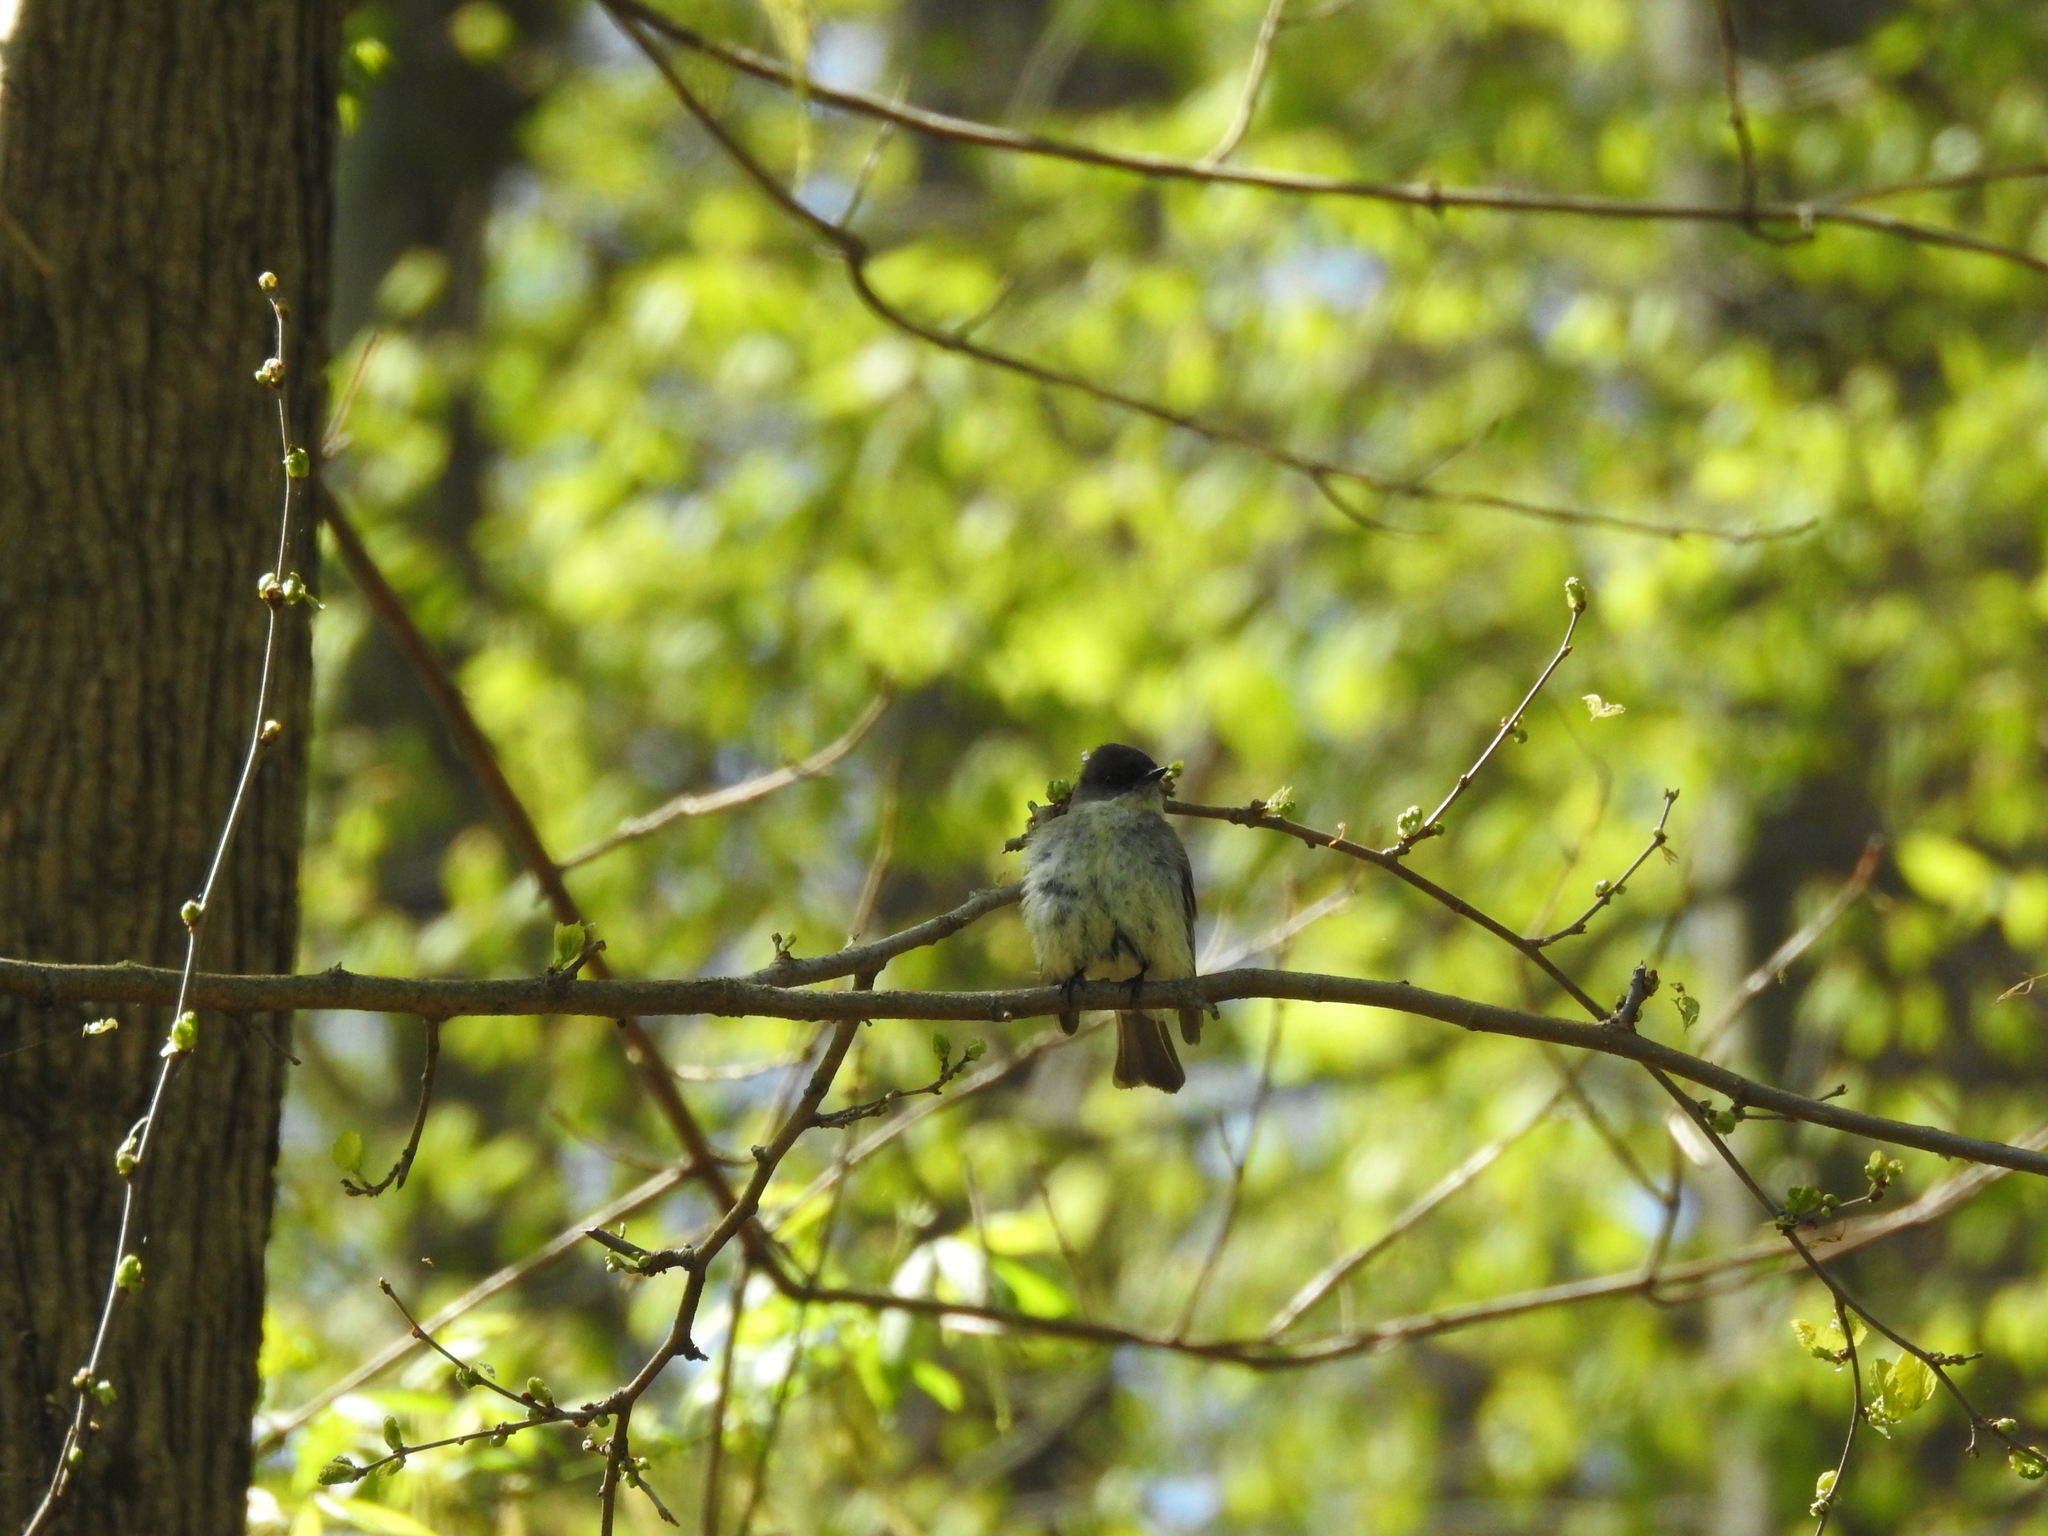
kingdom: Animalia
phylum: Chordata
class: Aves
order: Passeriformes
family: Tyrannidae
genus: Sayornis
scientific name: Sayornis phoebe
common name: Eastern phoebe
